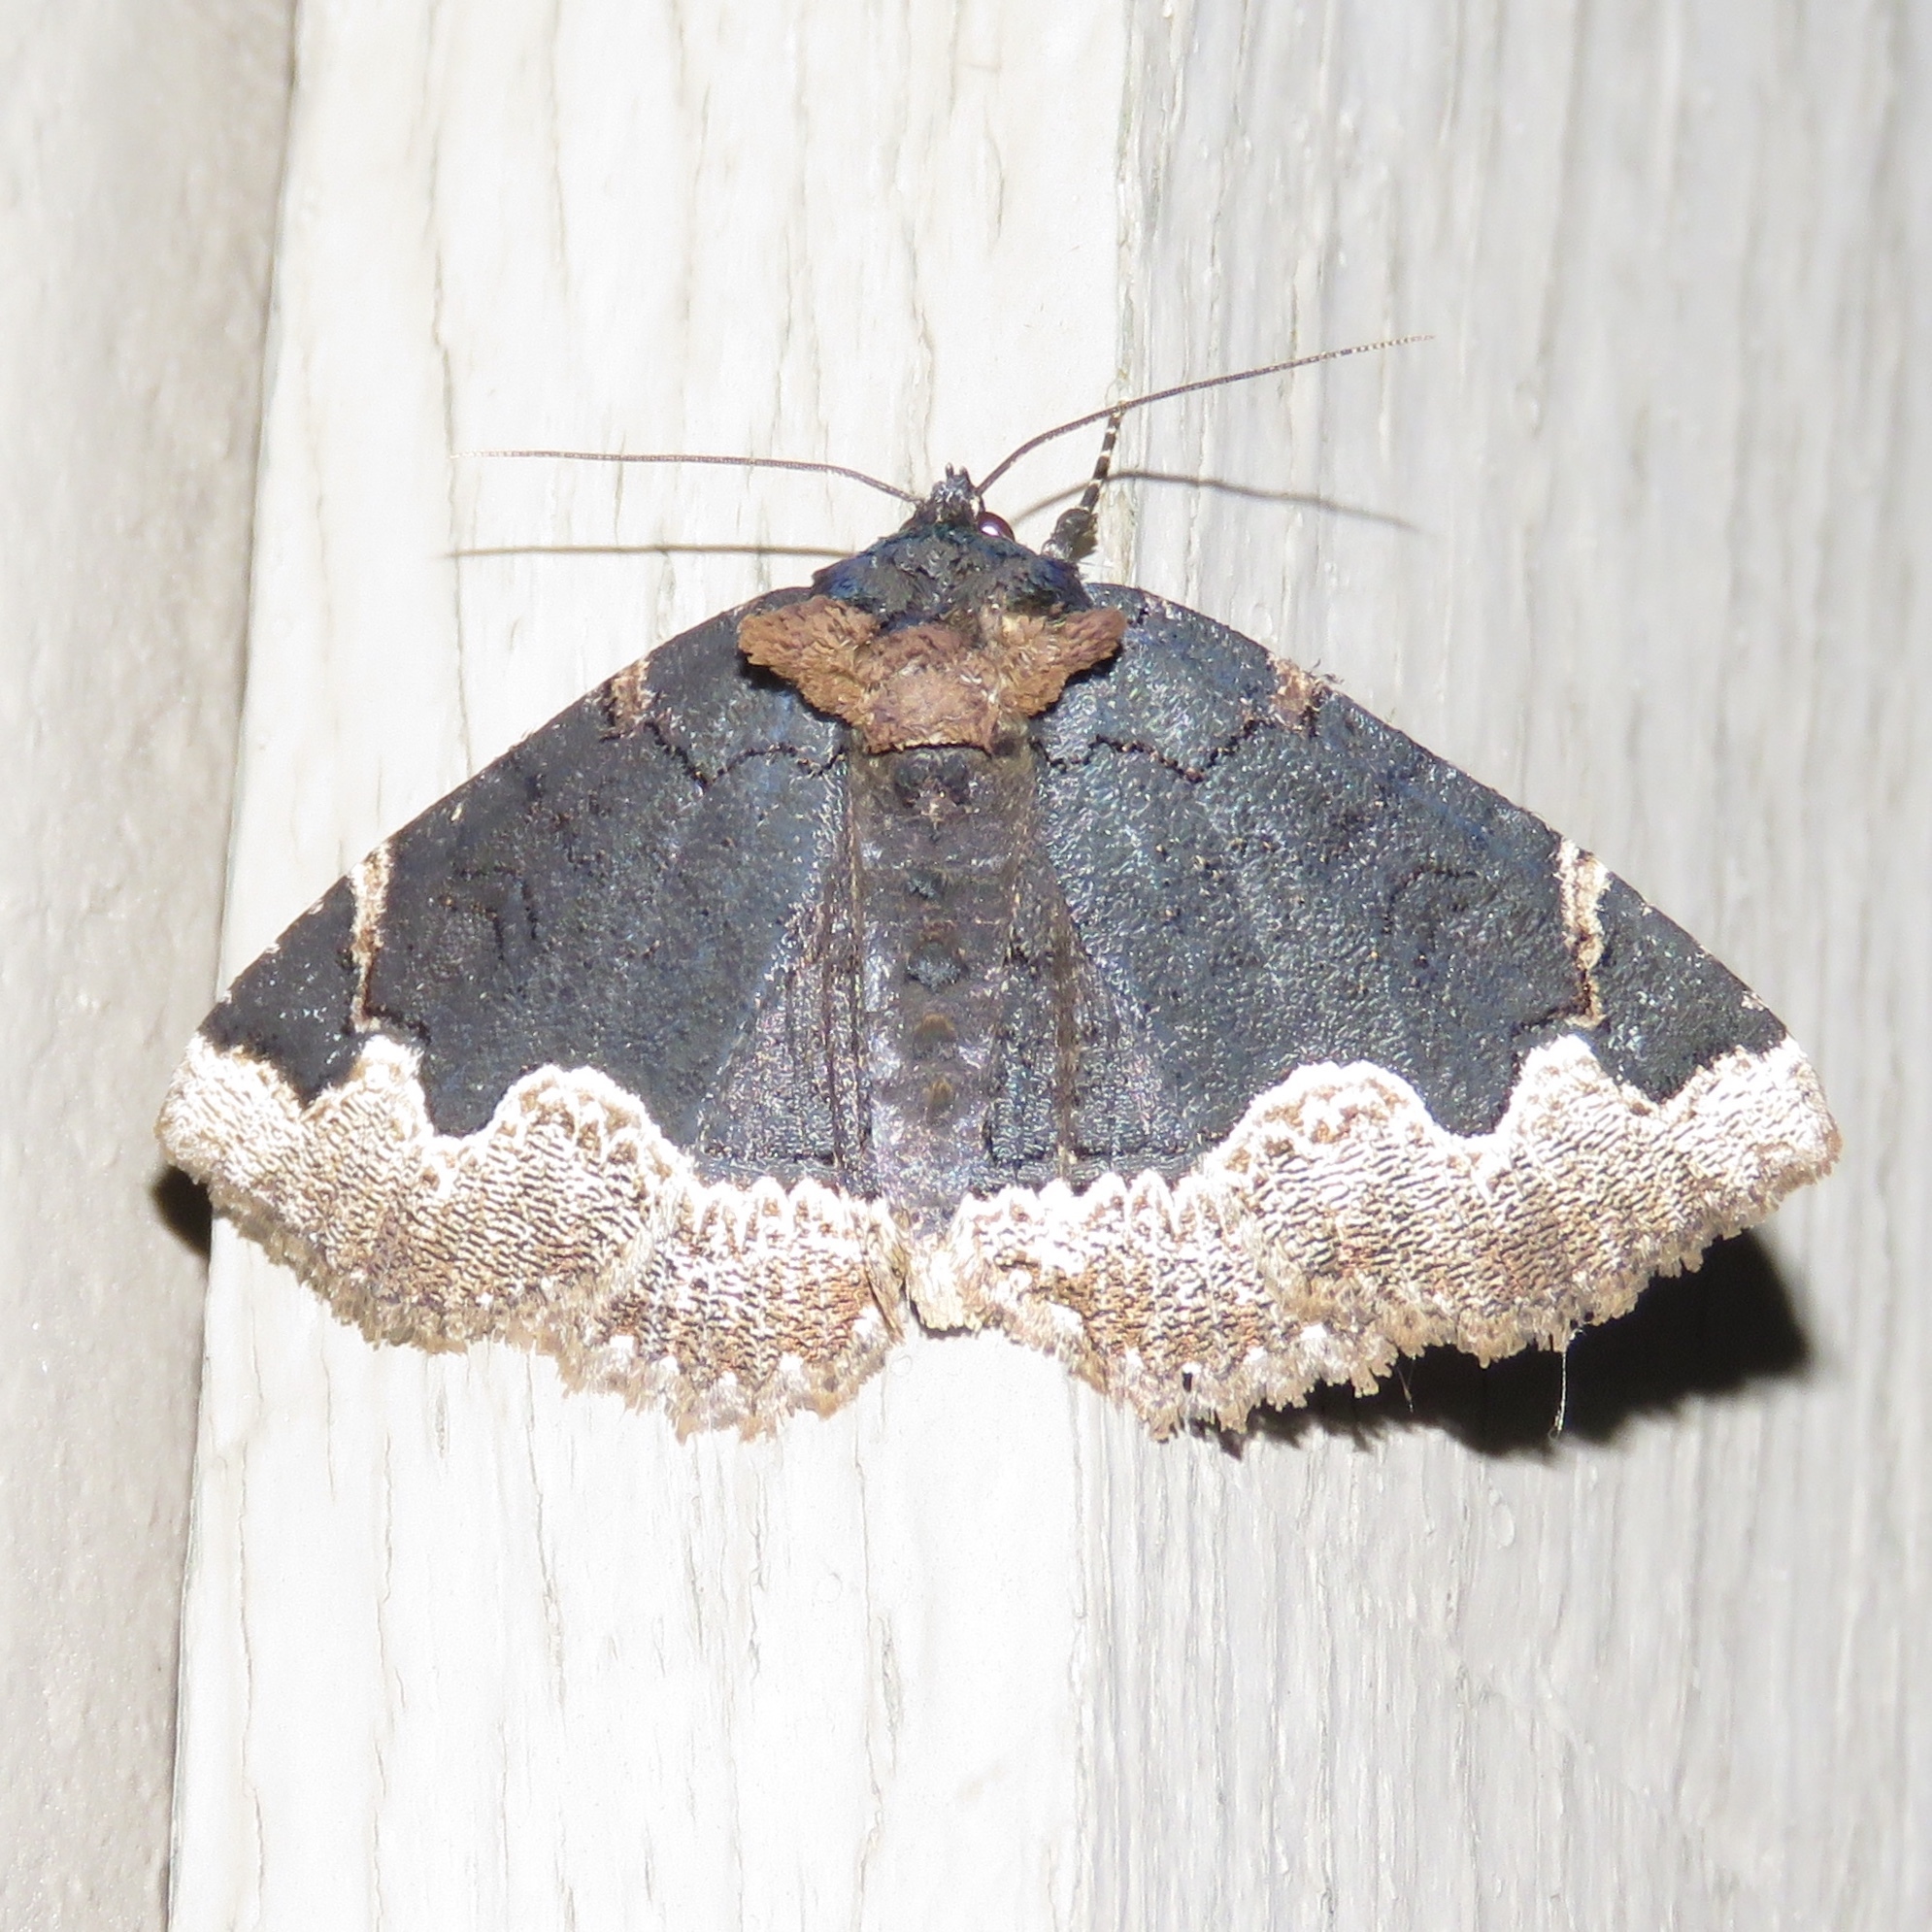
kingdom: Animalia
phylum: Arthropoda
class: Insecta
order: Lepidoptera
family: Erebidae
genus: Zale
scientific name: Zale horrida
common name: Horrid zale moth
